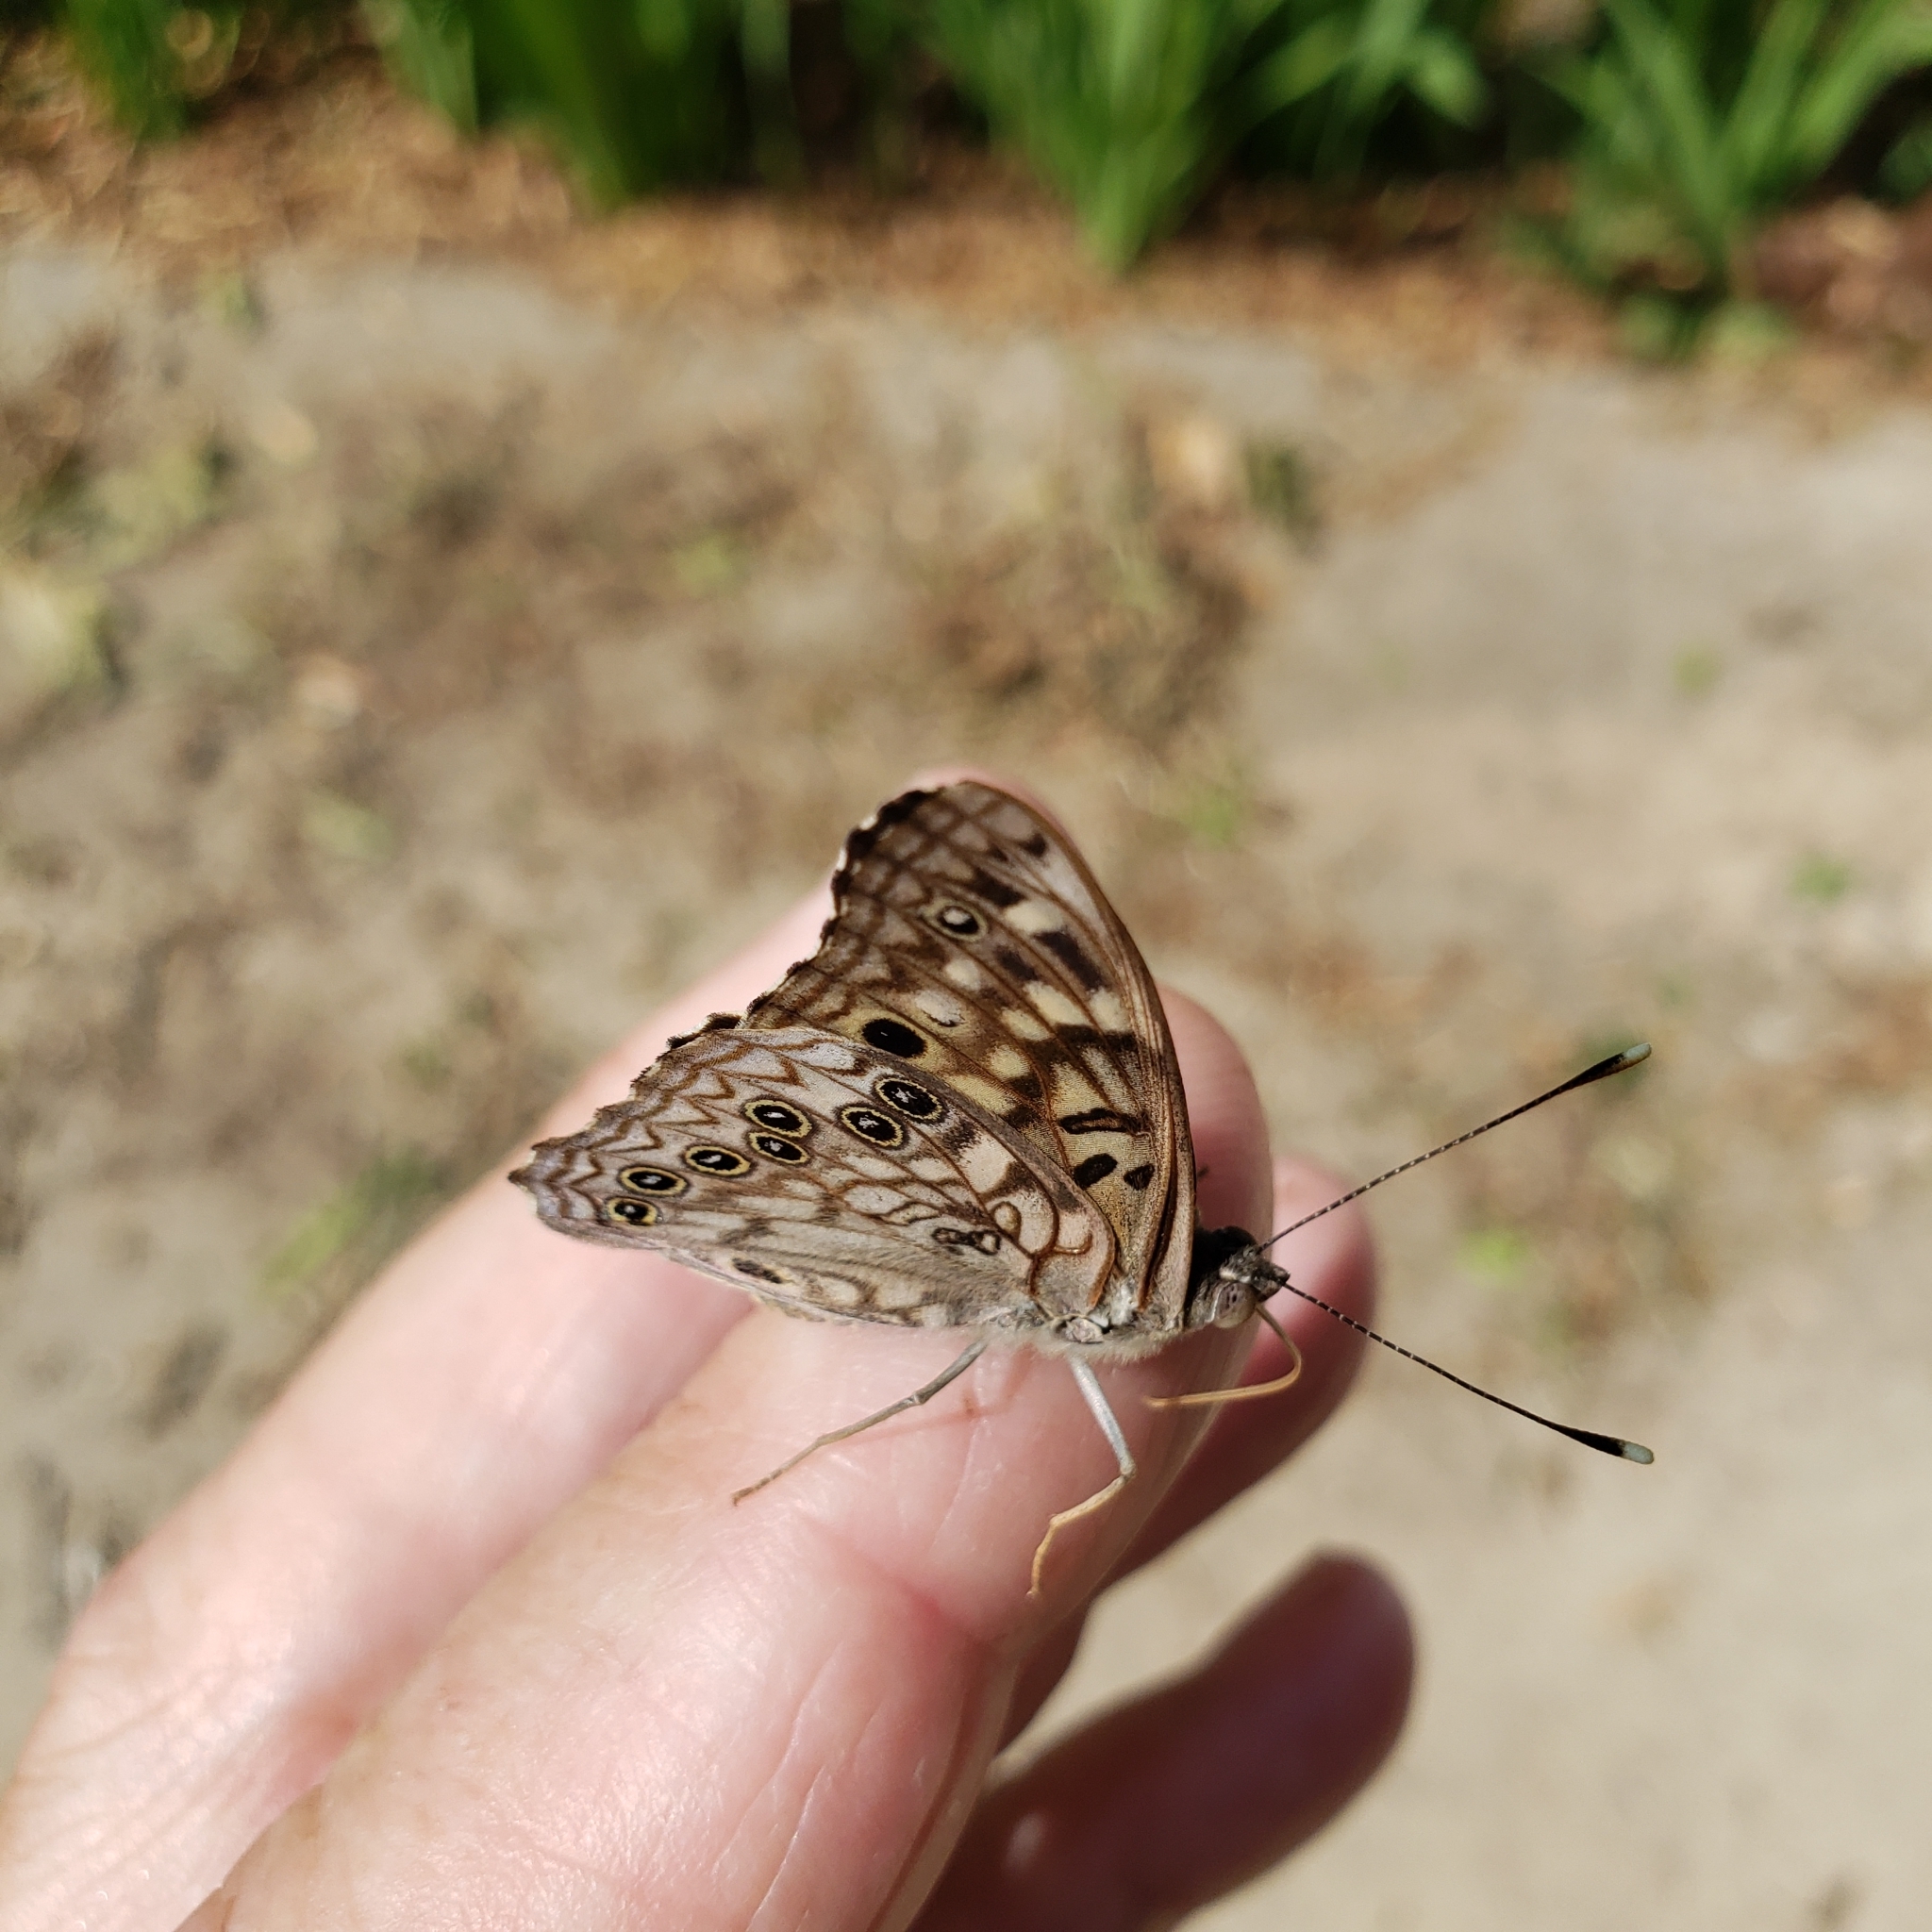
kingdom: Animalia
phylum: Arthropoda
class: Insecta
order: Lepidoptera
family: Nymphalidae
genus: Asterocampa
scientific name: Asterocampa celtis
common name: Hackberry emperor
